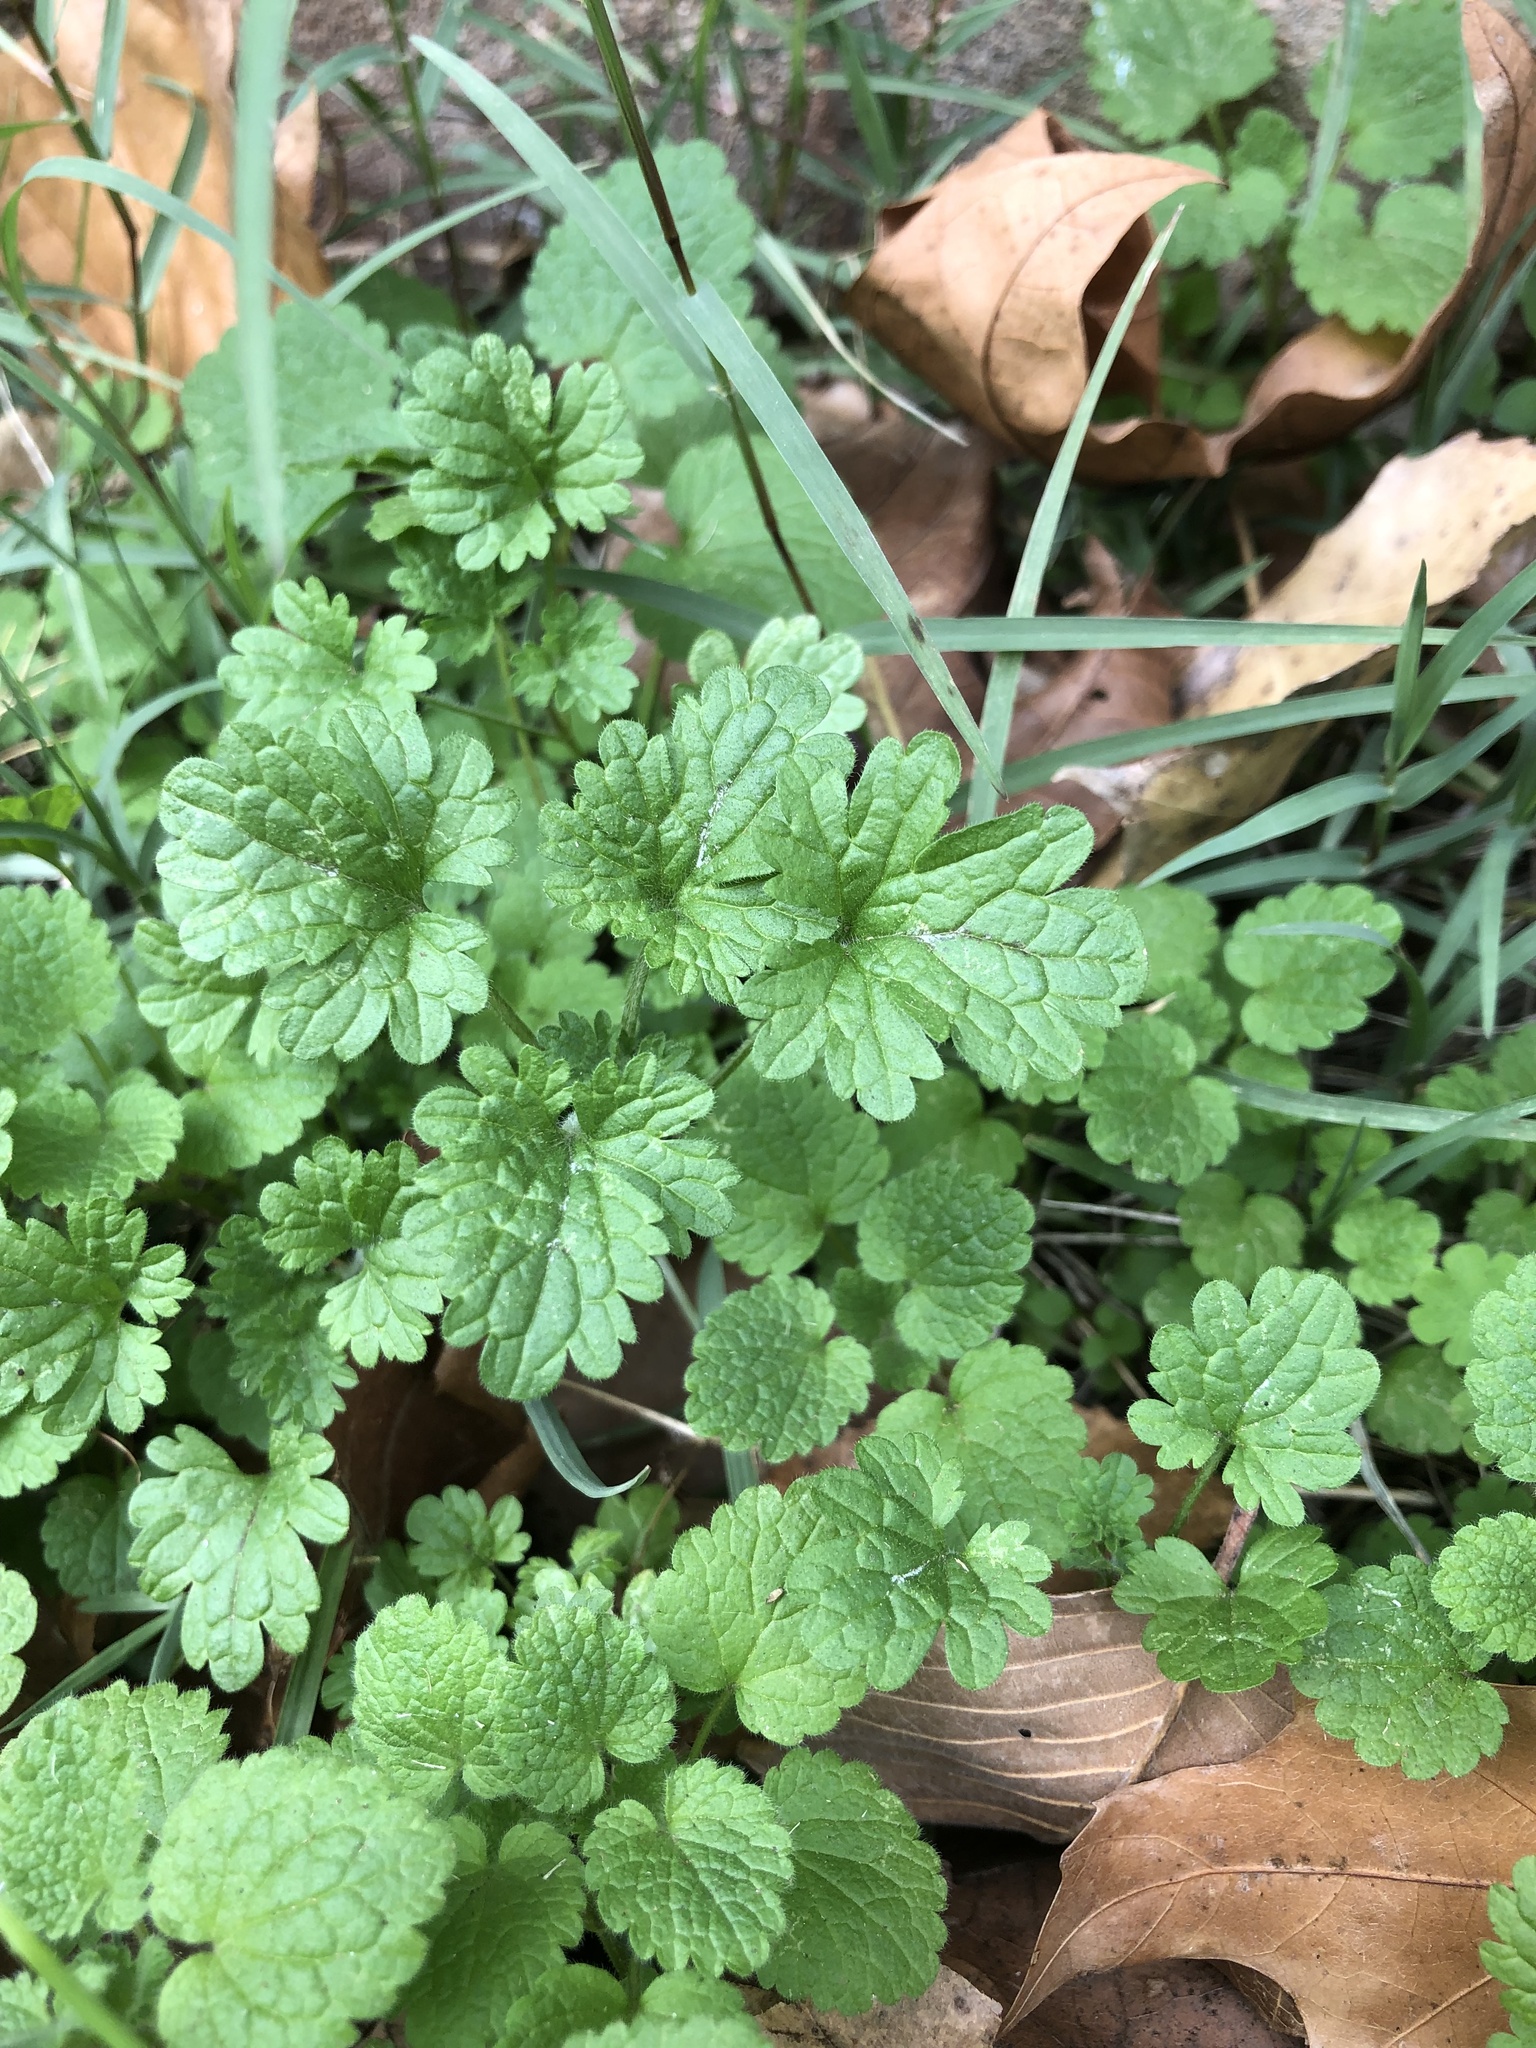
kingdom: Plantae
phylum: Tracheophyta
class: Magnoliopsida
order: Lamiales
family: Lamiaceae
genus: Lamium
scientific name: Lamium amplexicaule
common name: Henbit dead-nettle
